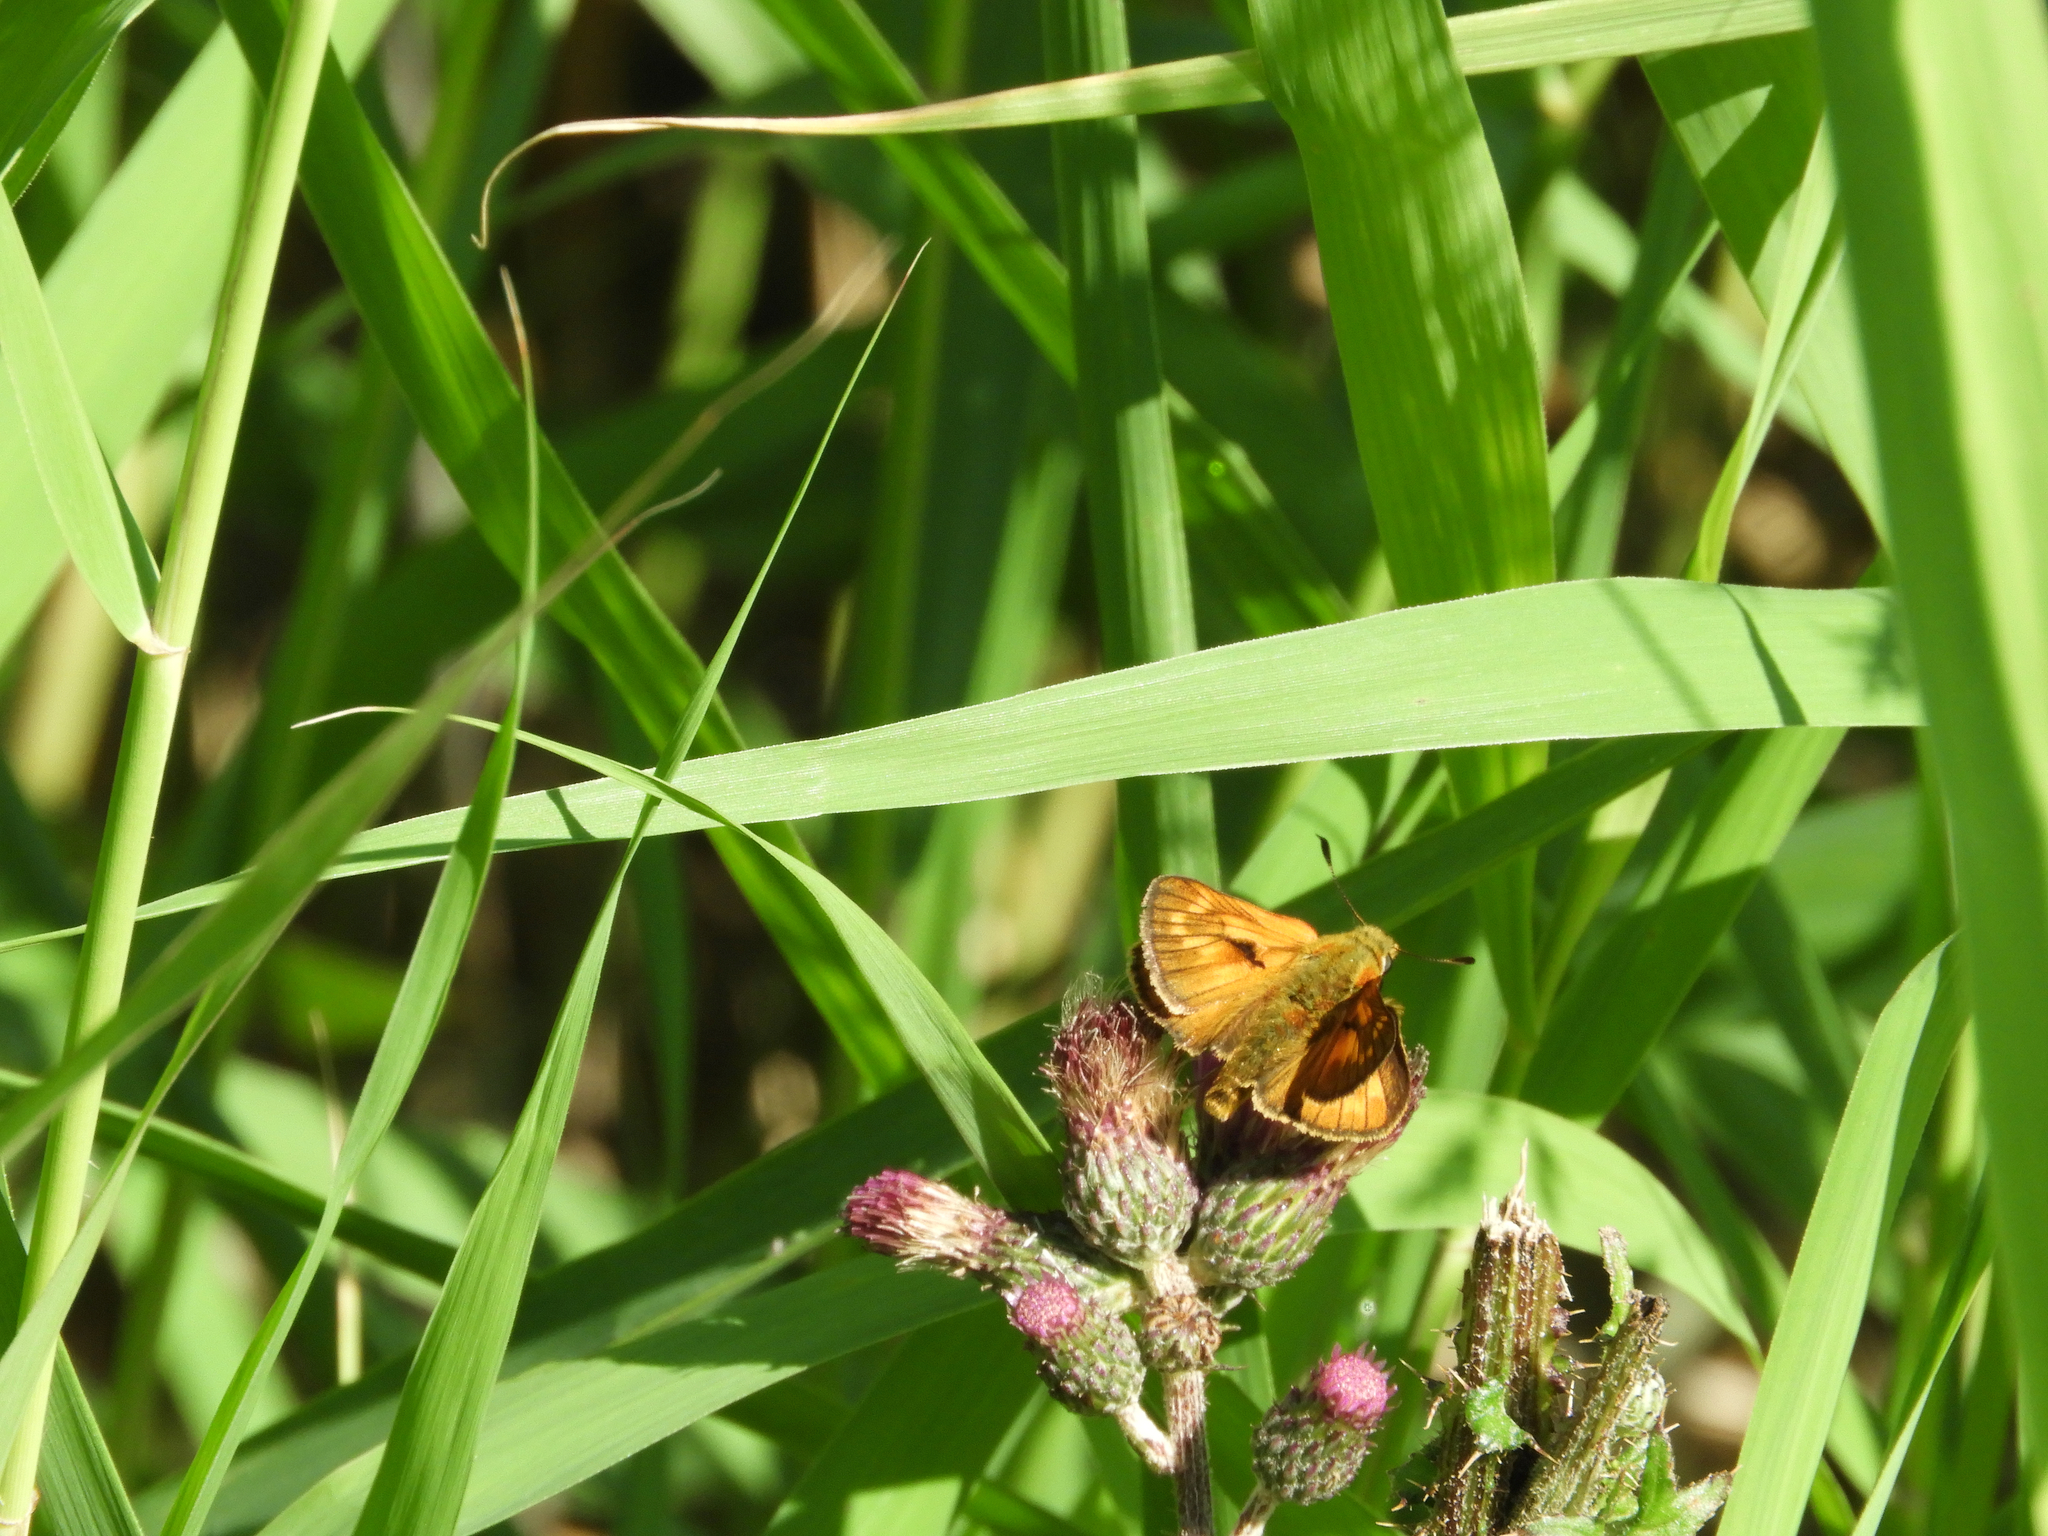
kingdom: Animalia
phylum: Arthropoda
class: Insecta
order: Lepidoptera
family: Hesperiidae
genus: Ochlodes
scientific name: Ochlodes venata
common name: Large skipper
